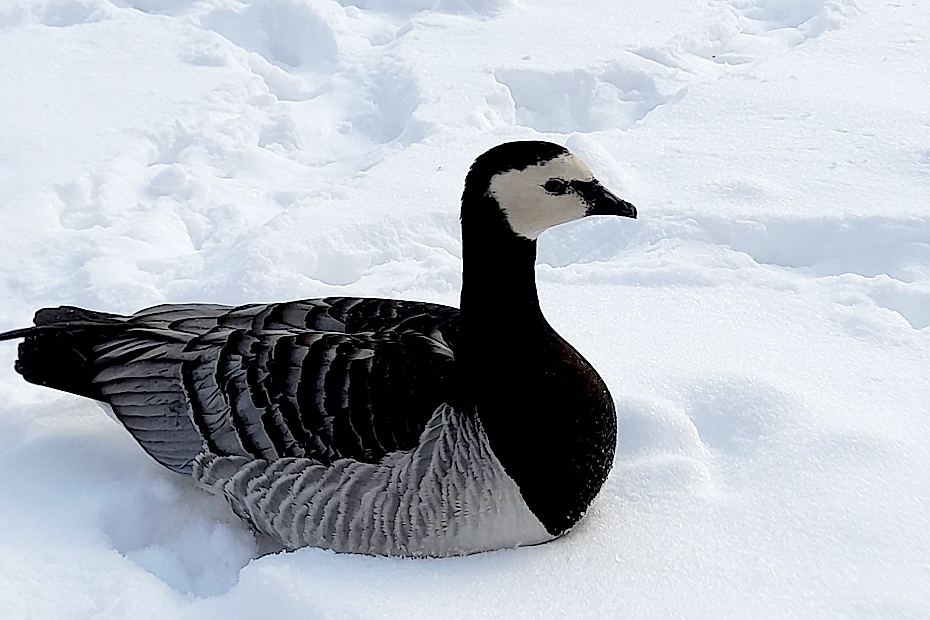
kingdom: Animalia
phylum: Chordata
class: Aves
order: Anseriformes
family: Anatidae
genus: Branta
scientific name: Branta leucopsis
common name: Barnacle goose
